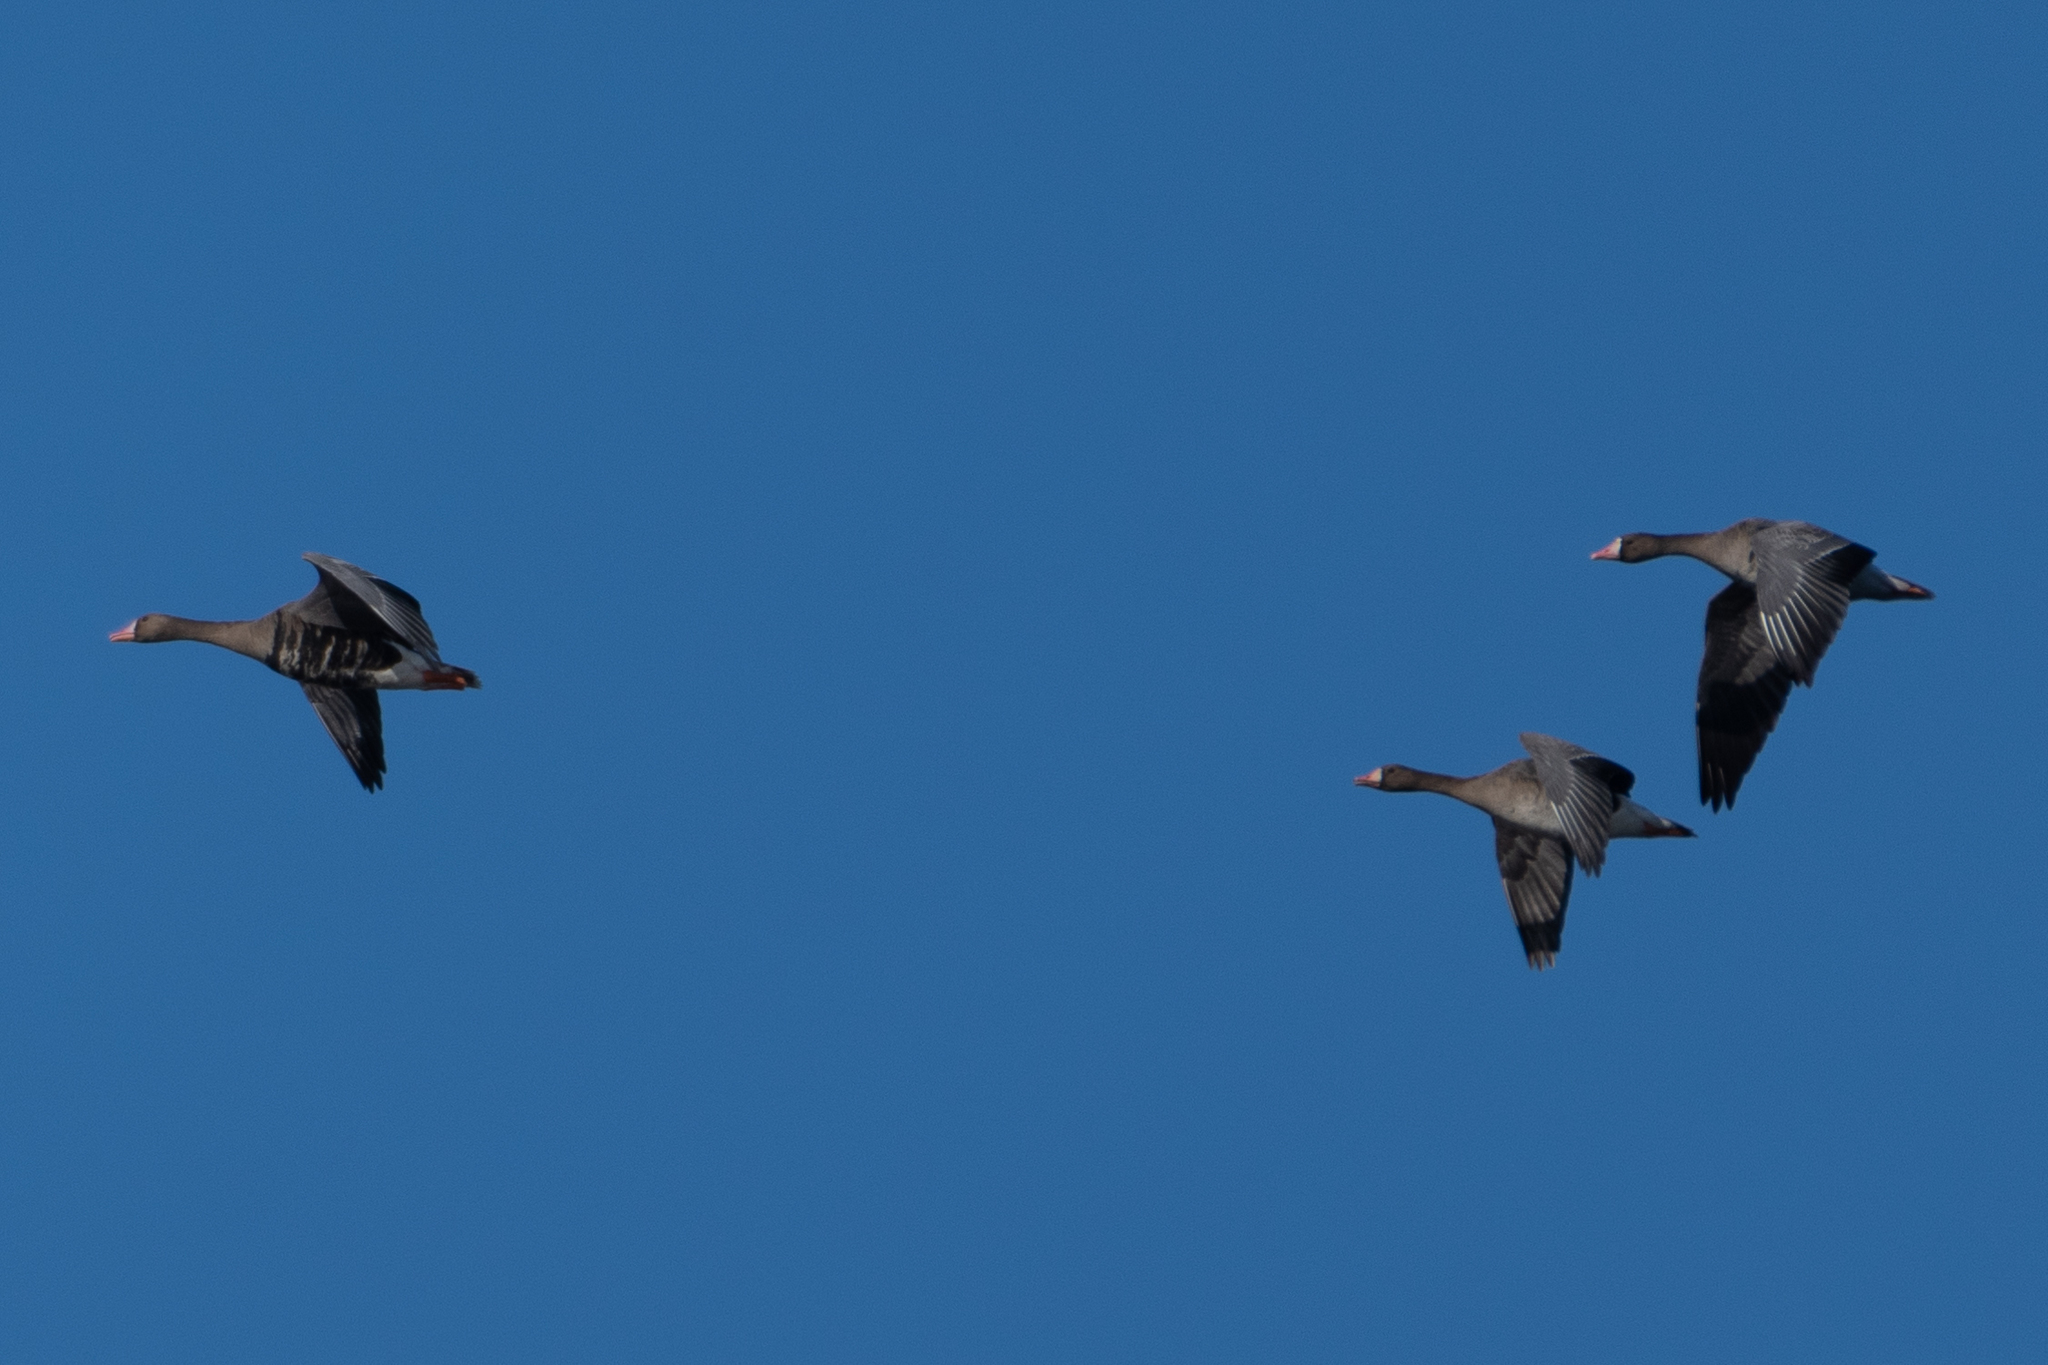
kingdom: Animalia
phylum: Chordata
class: Aves
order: Anseriformes
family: Anatidae
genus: Anser
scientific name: Anser albifrons
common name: Greater white-fronted goose
